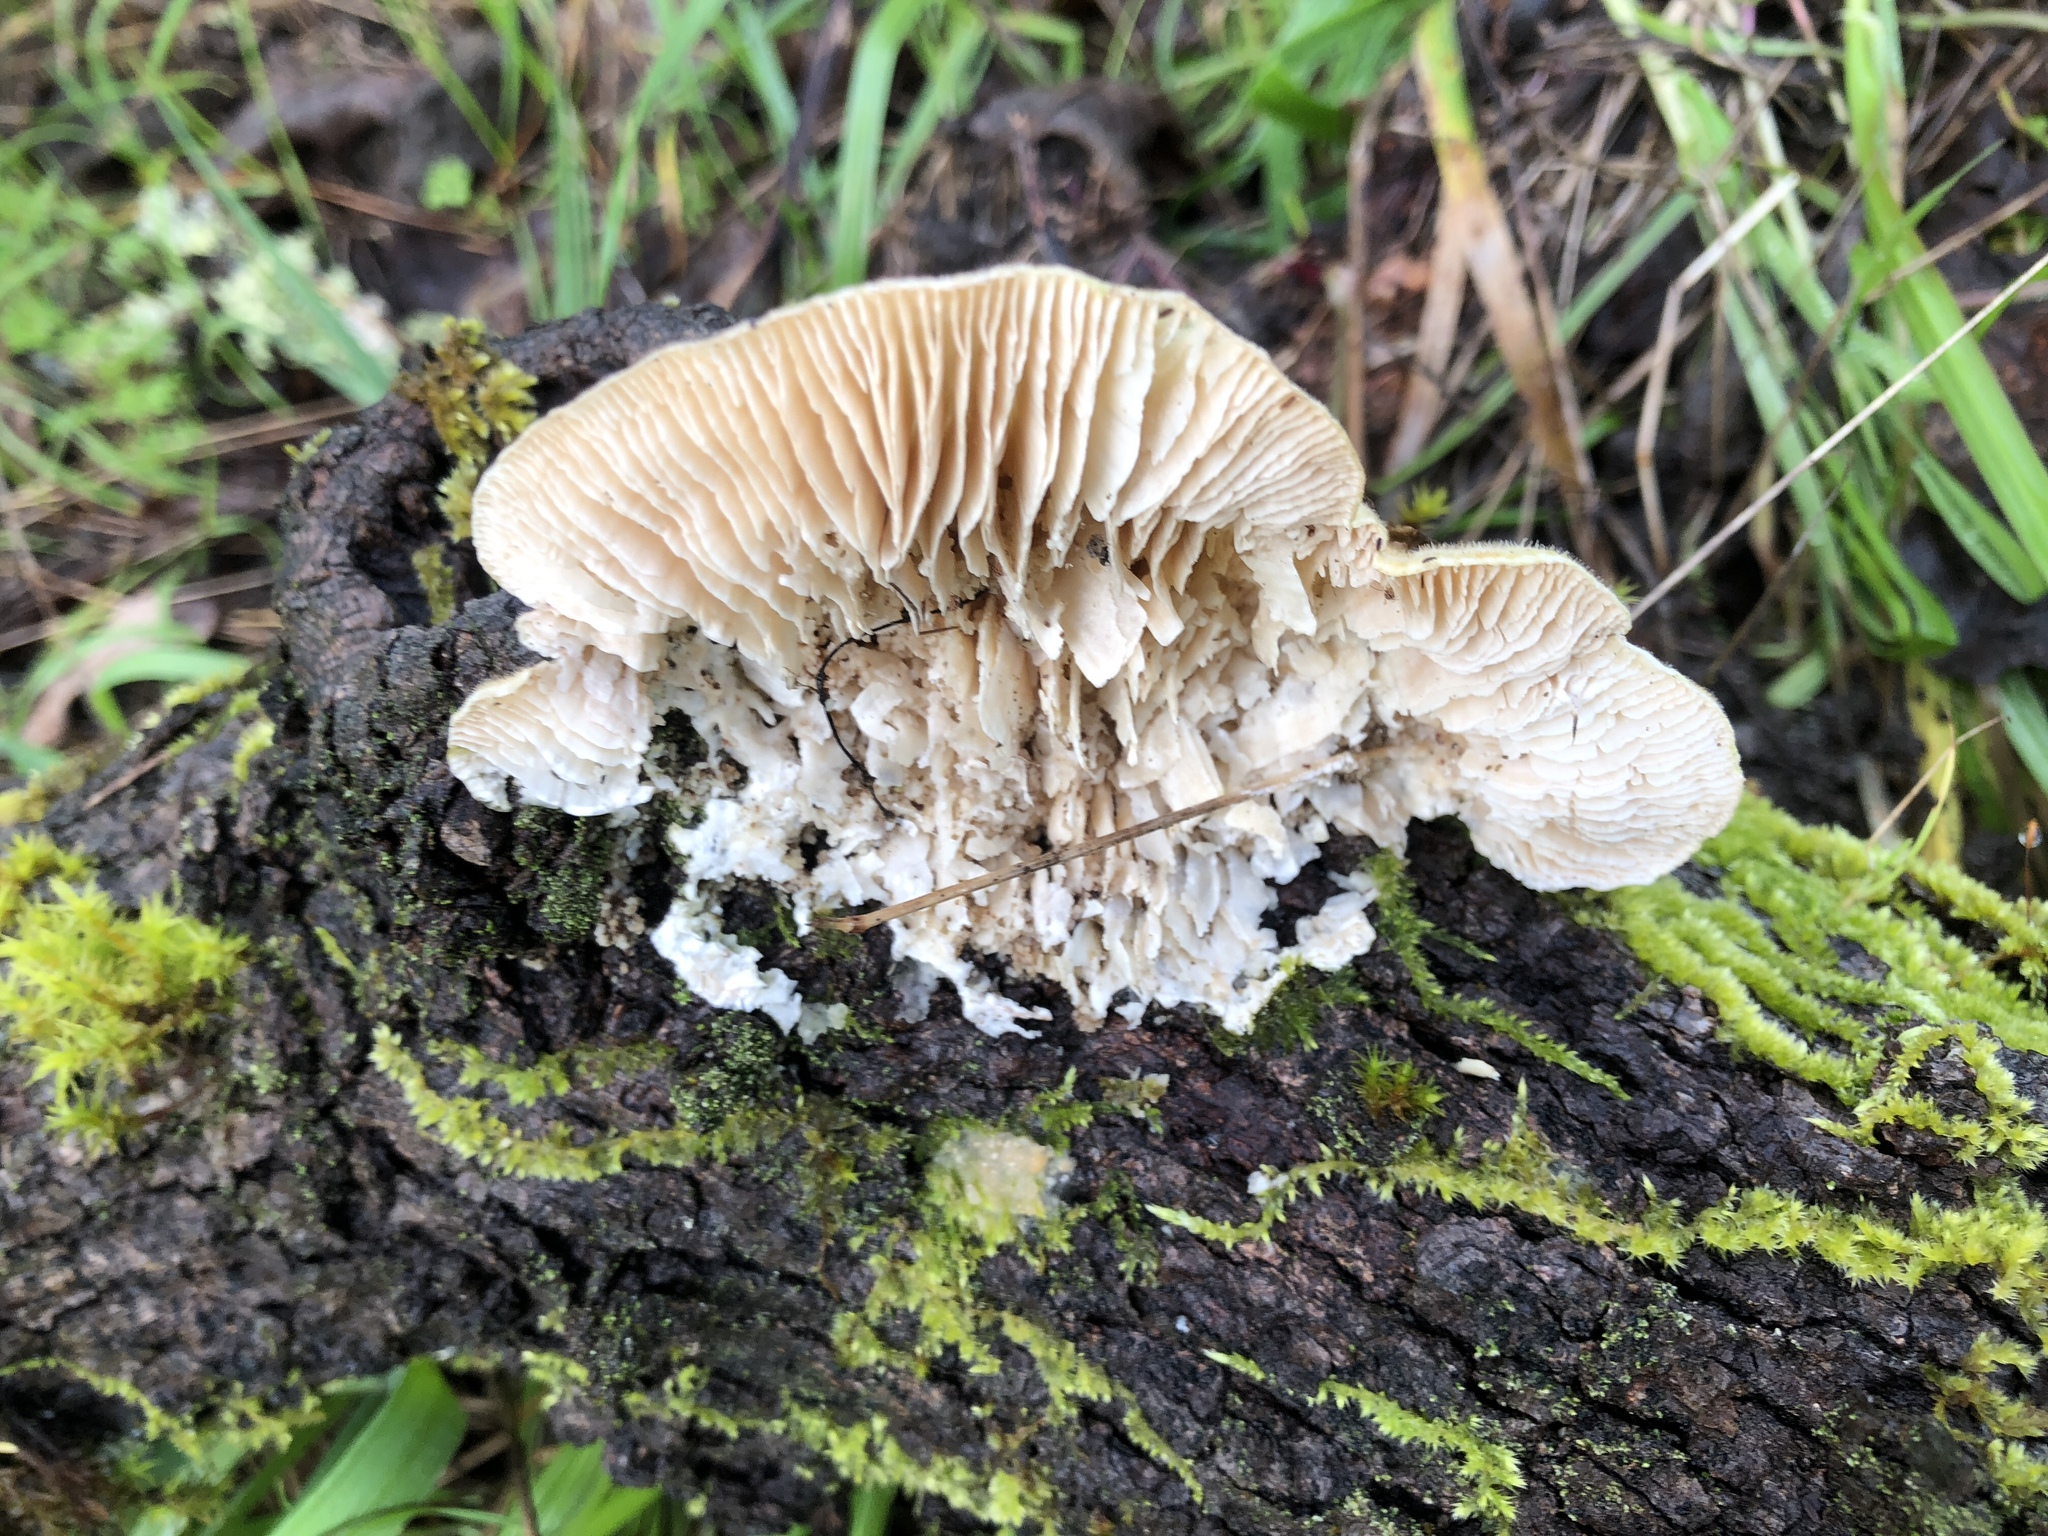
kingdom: Fungi
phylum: Basidiomycota
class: Agaricomycetes
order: Polyporales
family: Polyporaceae
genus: Lenzites
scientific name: Lenzites betulinus
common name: Birch mazegill
